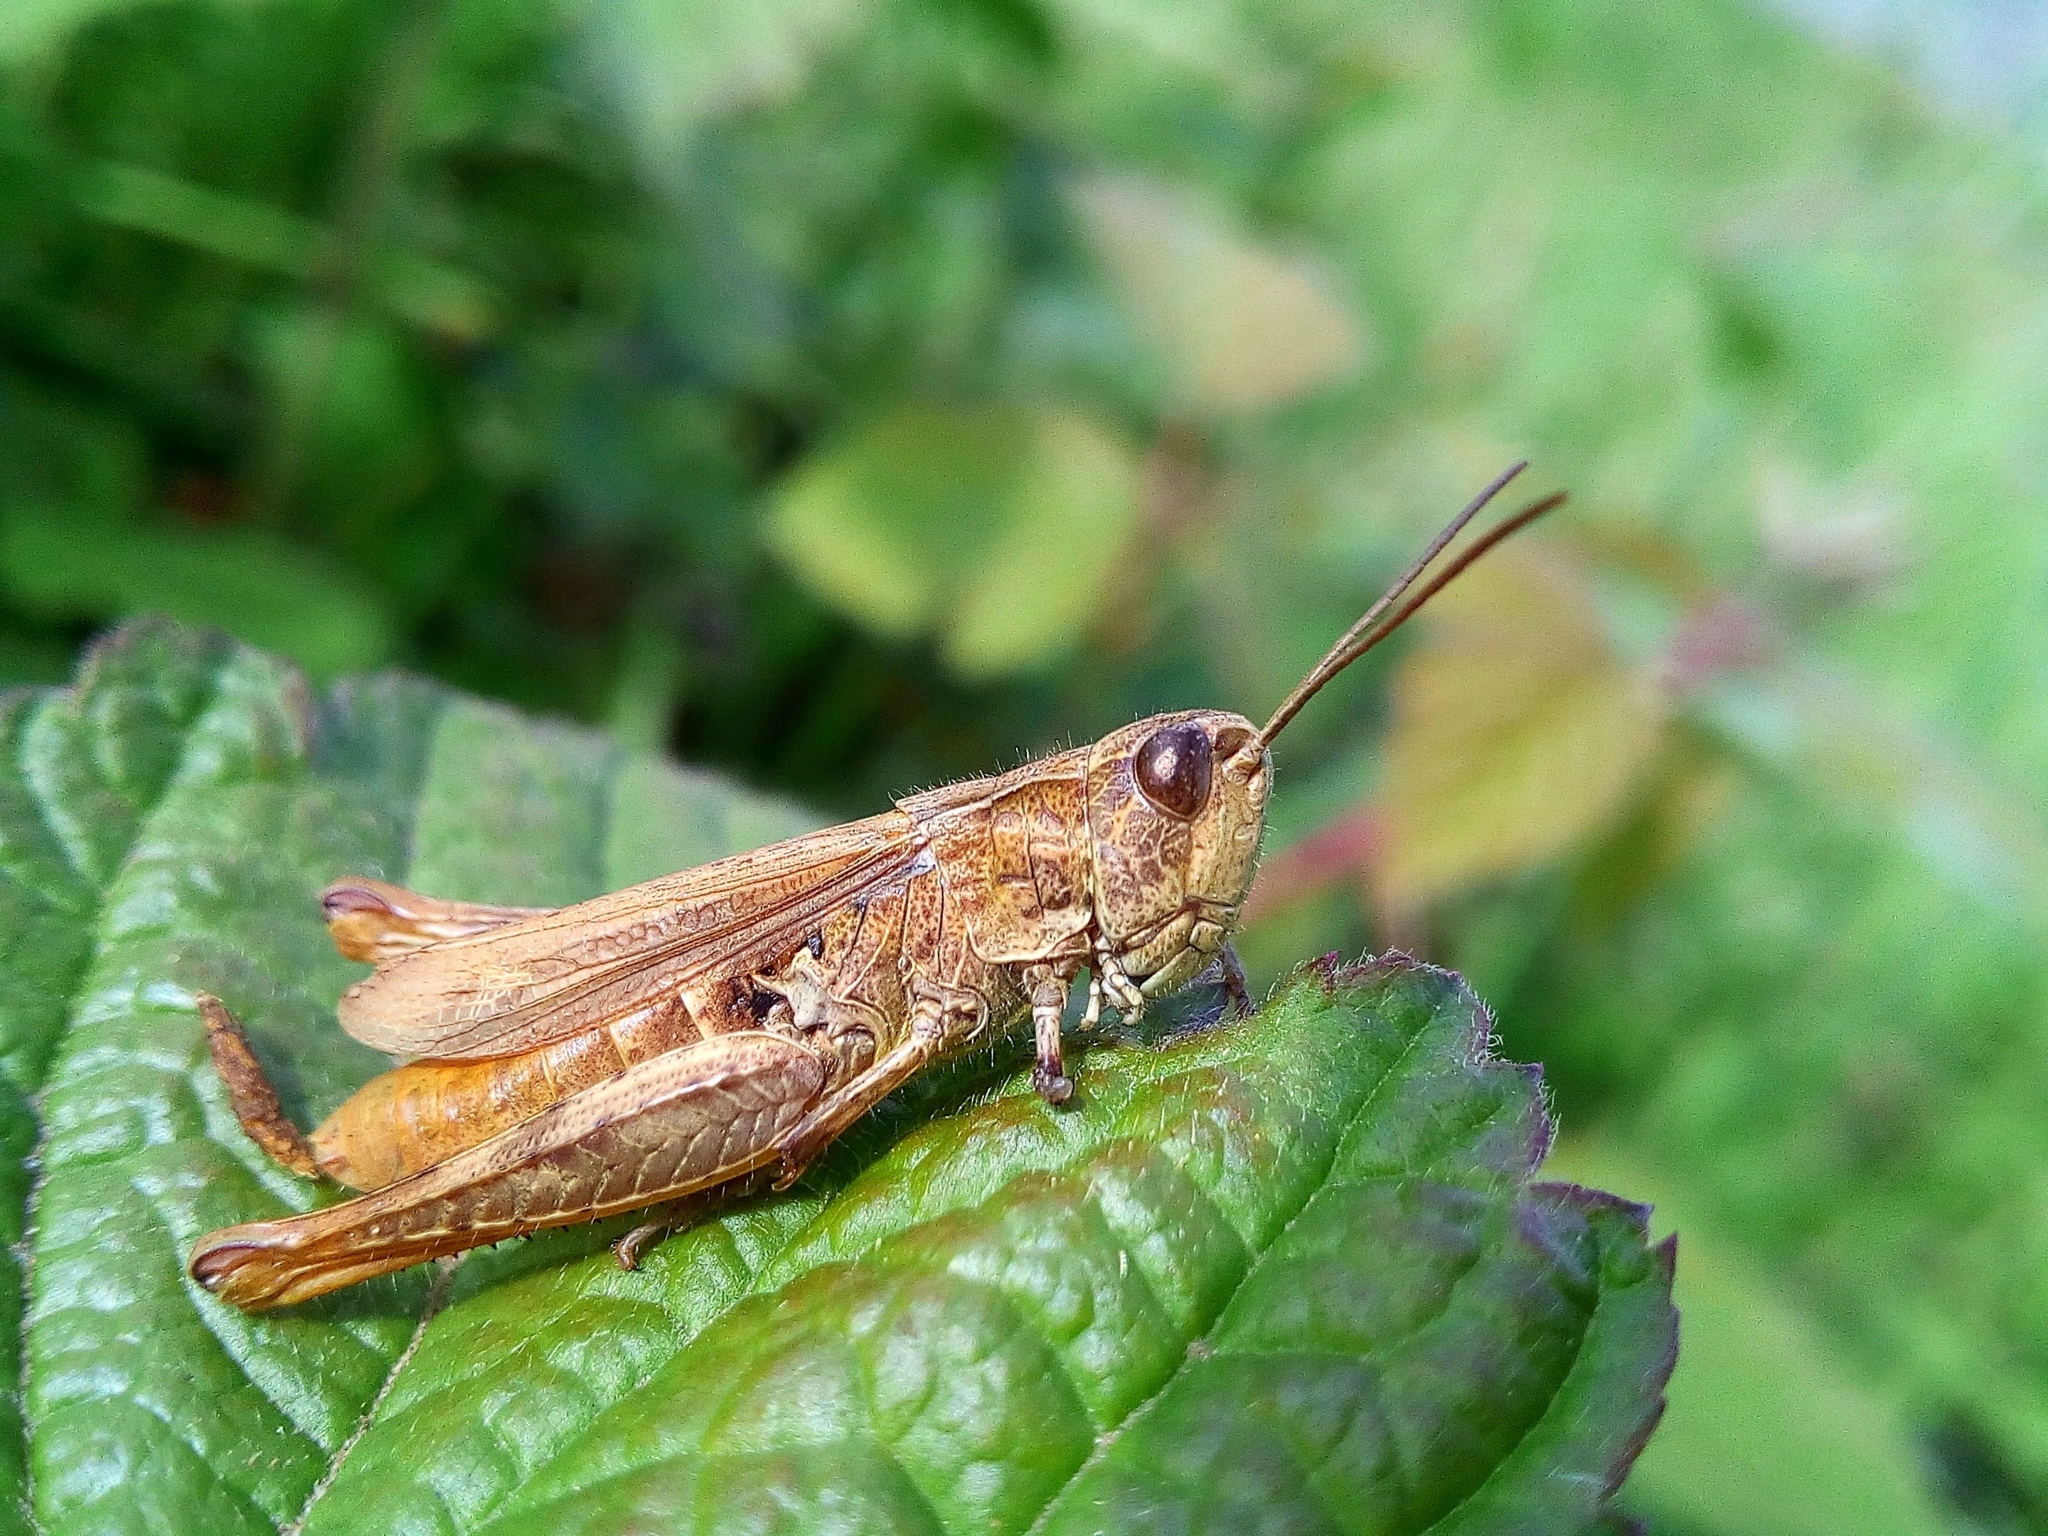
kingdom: Animalia
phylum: Arthropoda
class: Insecta
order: Orthoptera
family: Acrididae
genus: Chorthippus
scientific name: Chorthippus apricarius
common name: Upland field grasshopper
